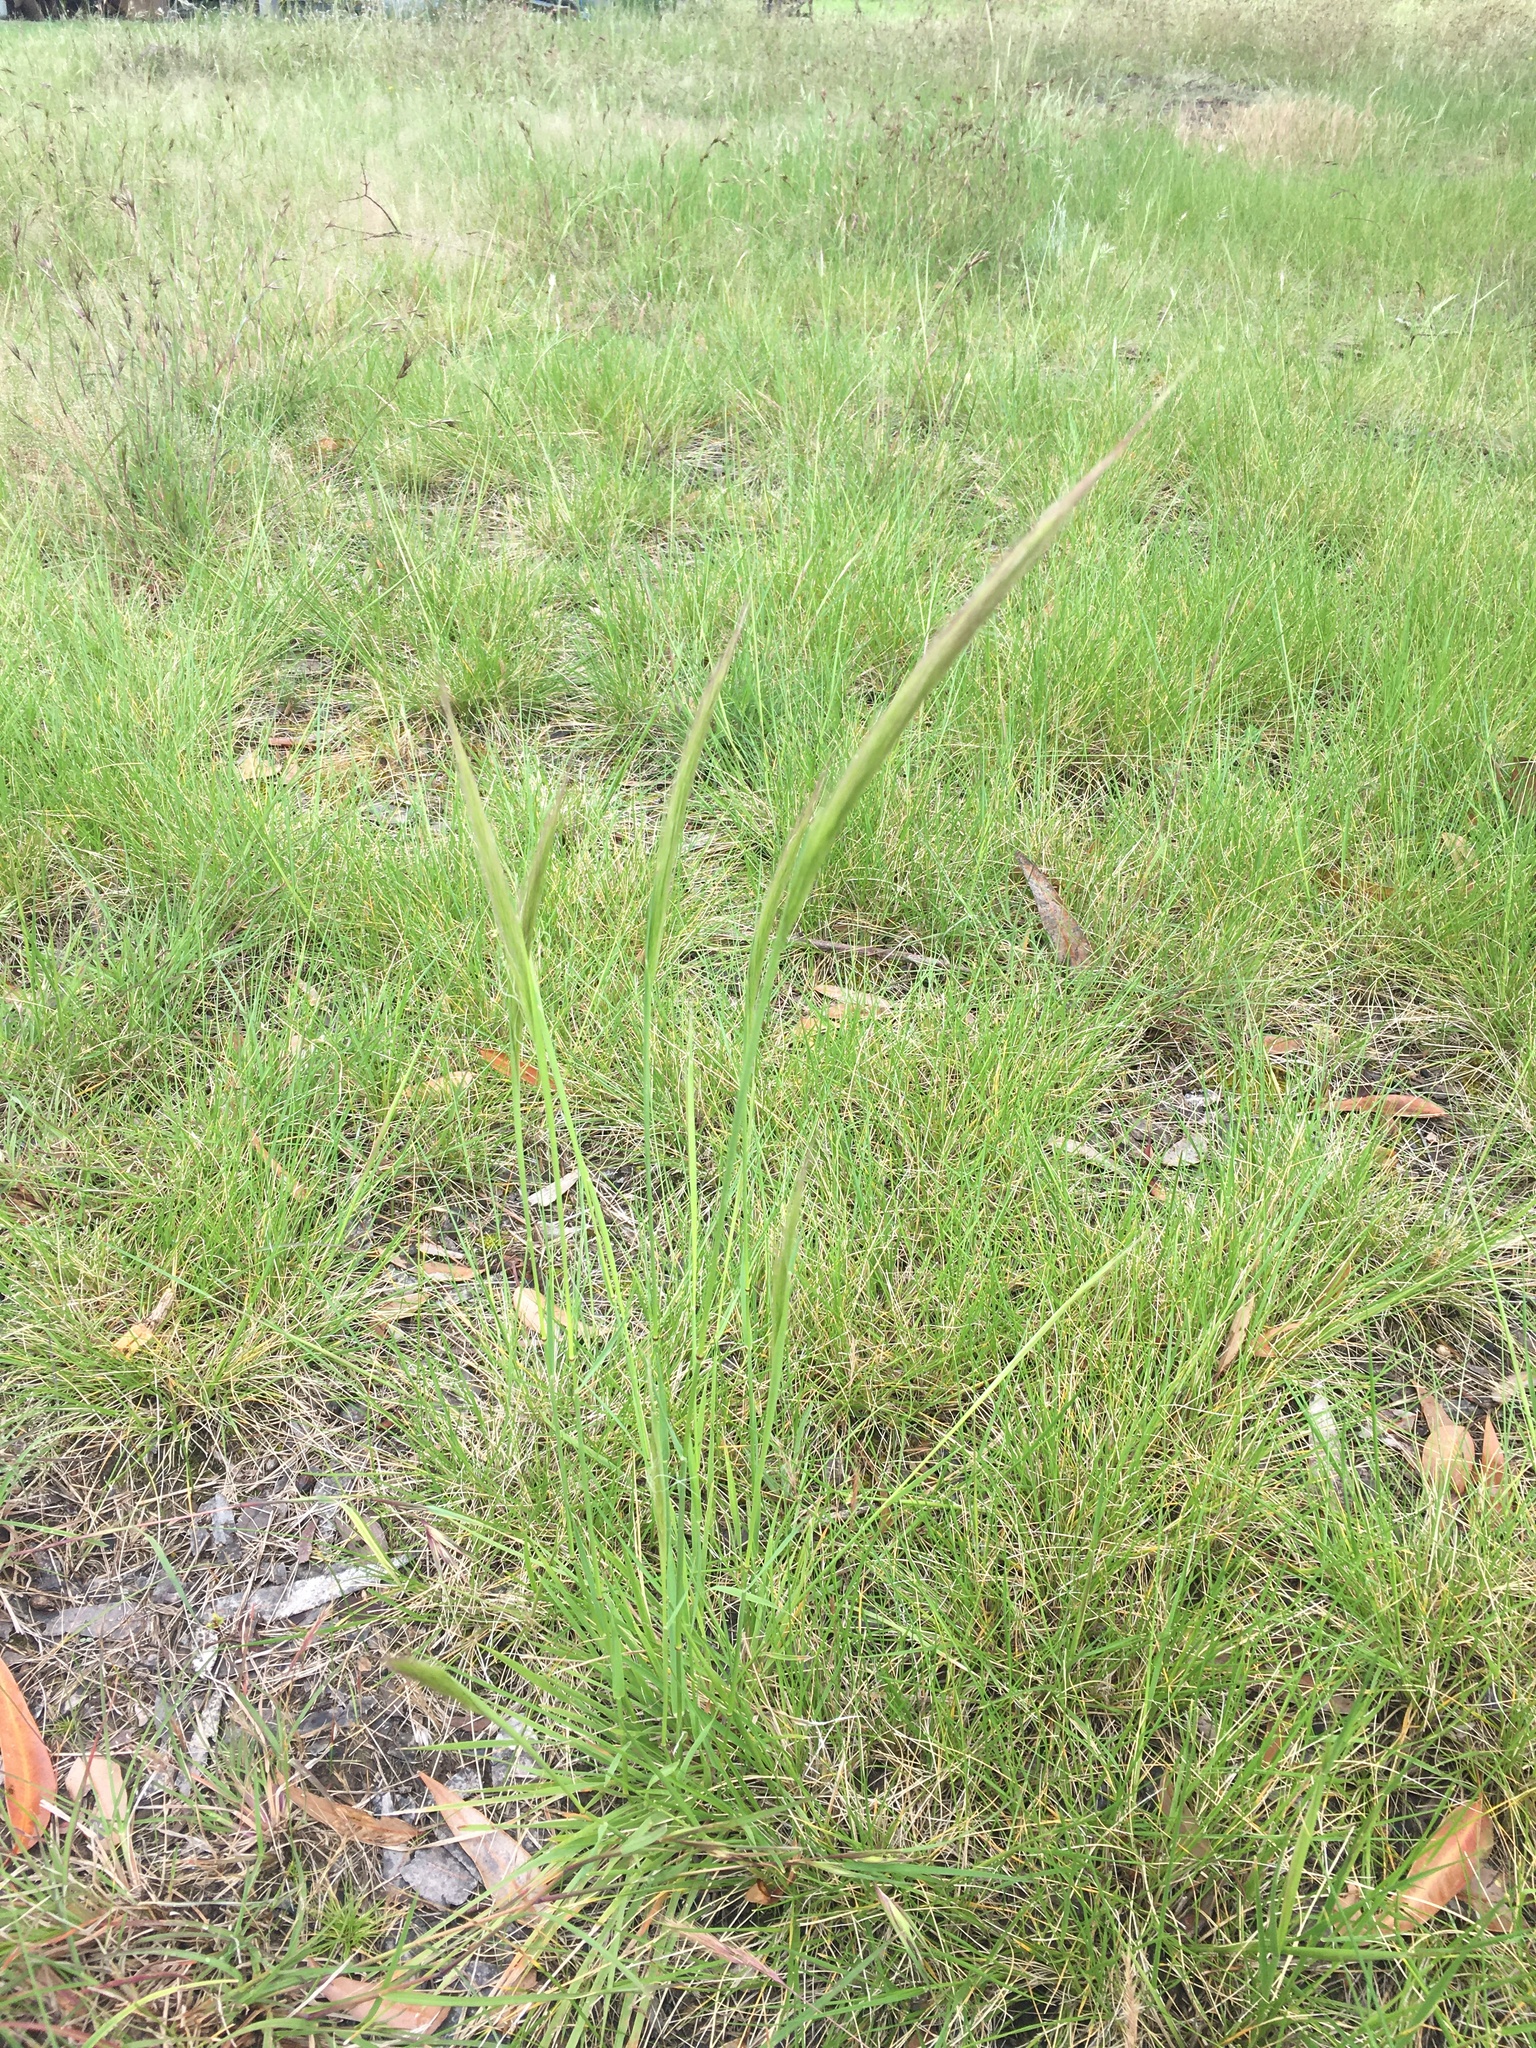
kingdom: Plantae
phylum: Tracheophyta
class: Liliopsida
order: Poales
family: Poaceae
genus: Dichelachne
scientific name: Dichelachne crinita
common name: Clovenfoot plumegrass
